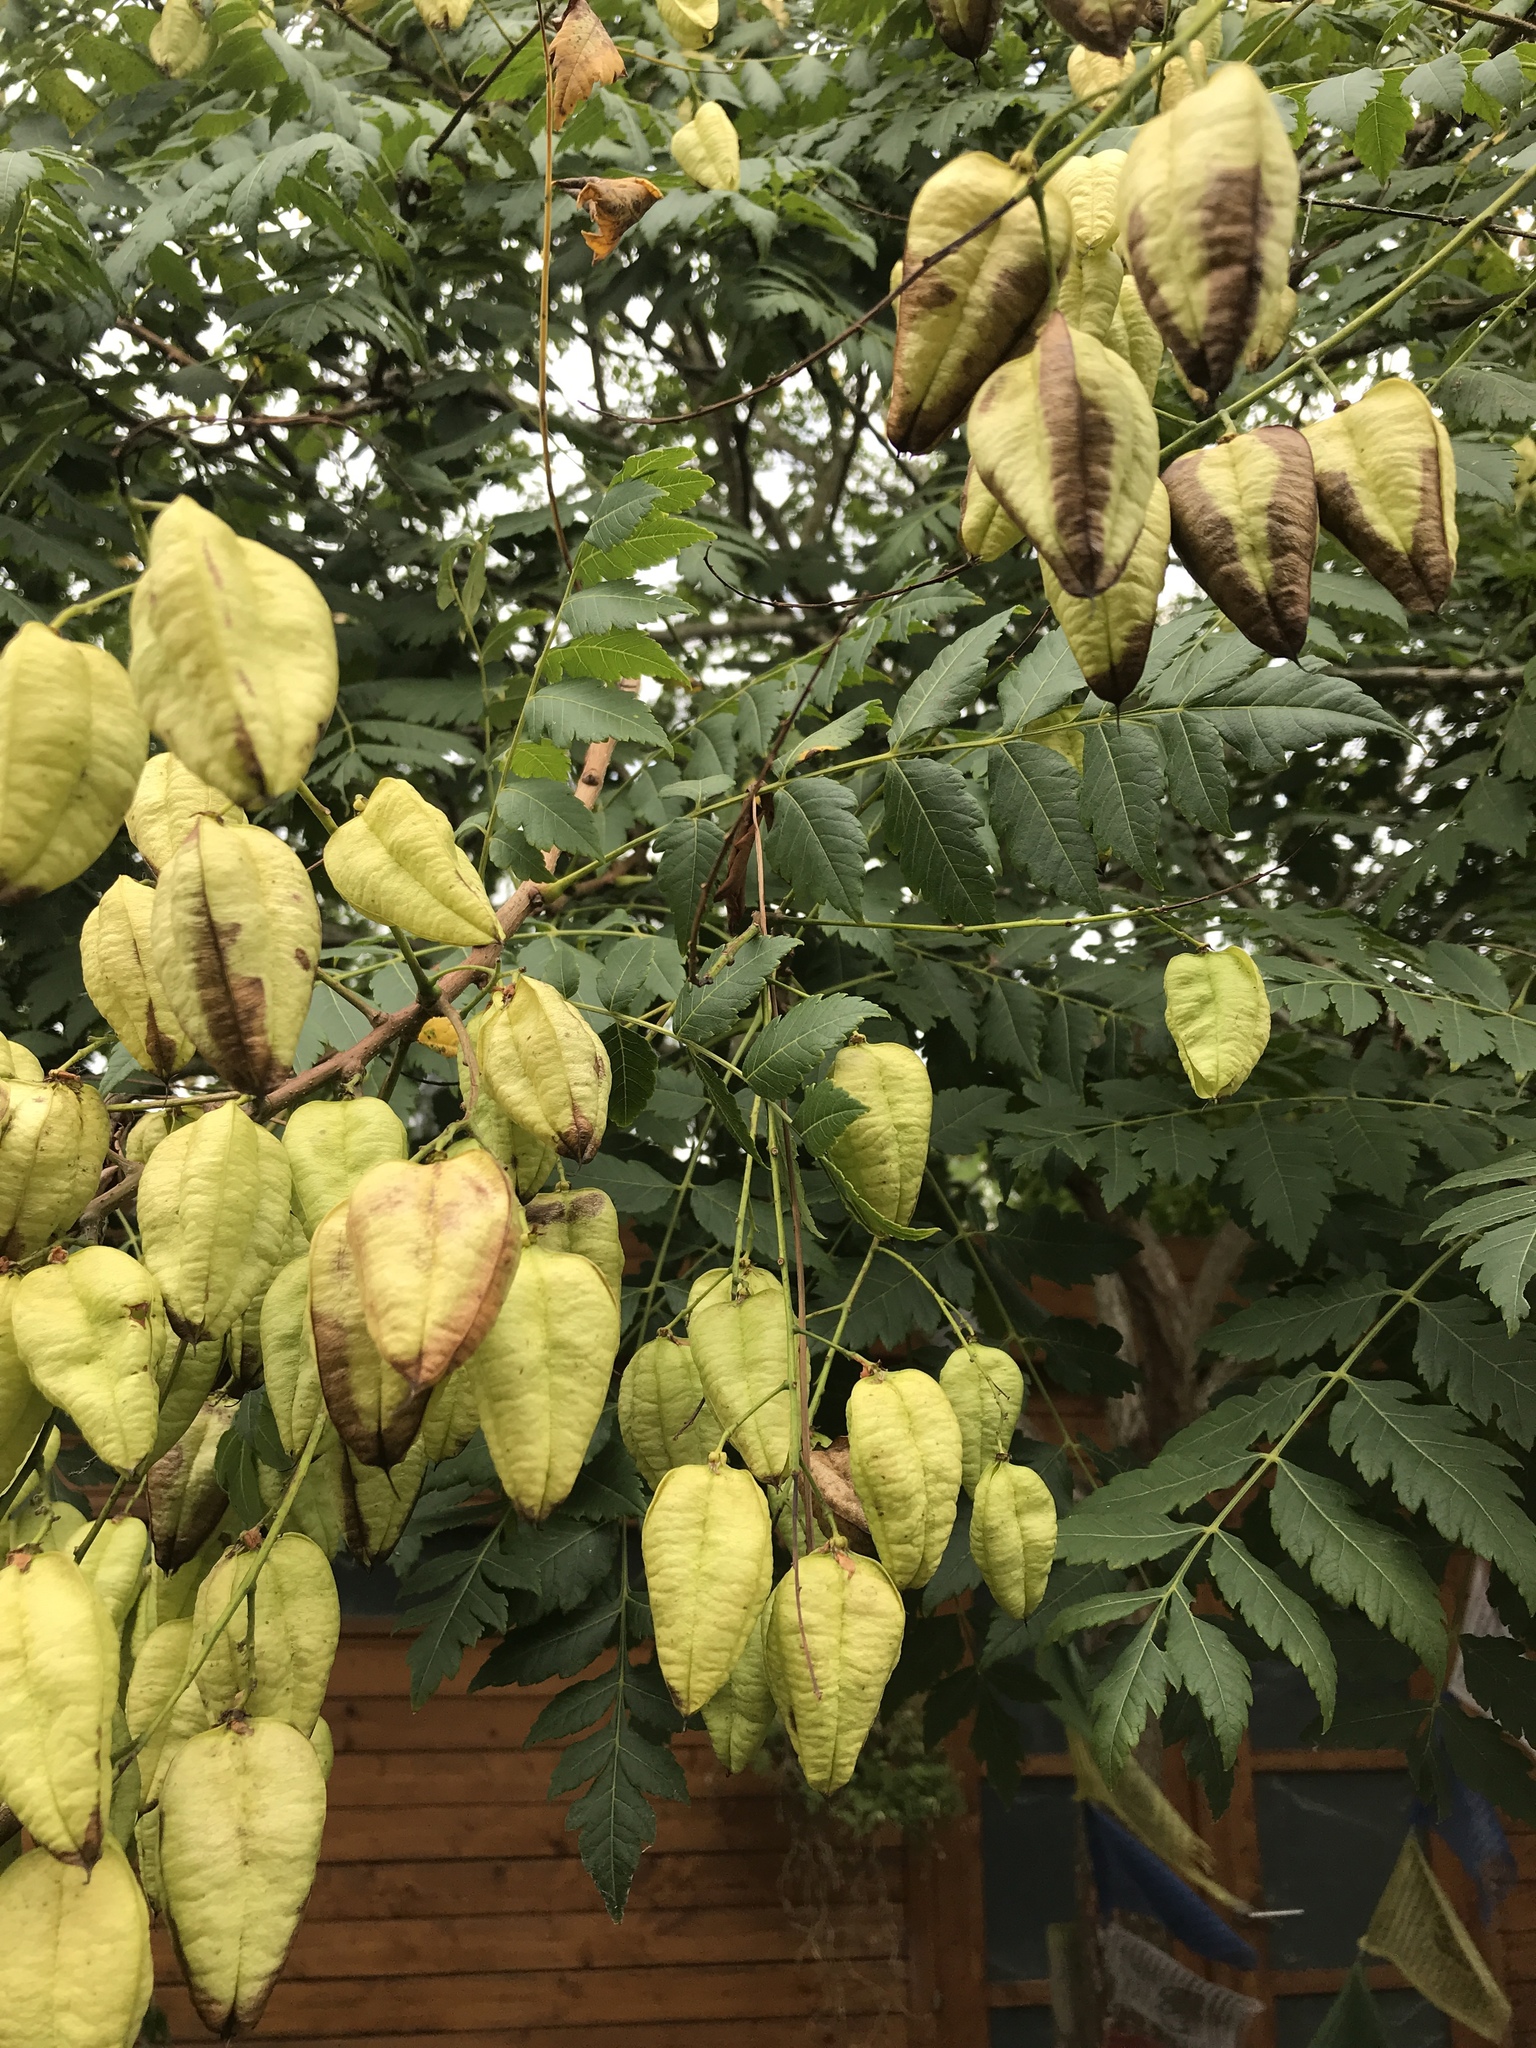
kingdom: Plantae
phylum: Tracheophyta
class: Magnoliopsida
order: Sapindales
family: Sapindaceae
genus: Koelreuteria
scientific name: Koelreuteria paniculata
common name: Pride-of-india
